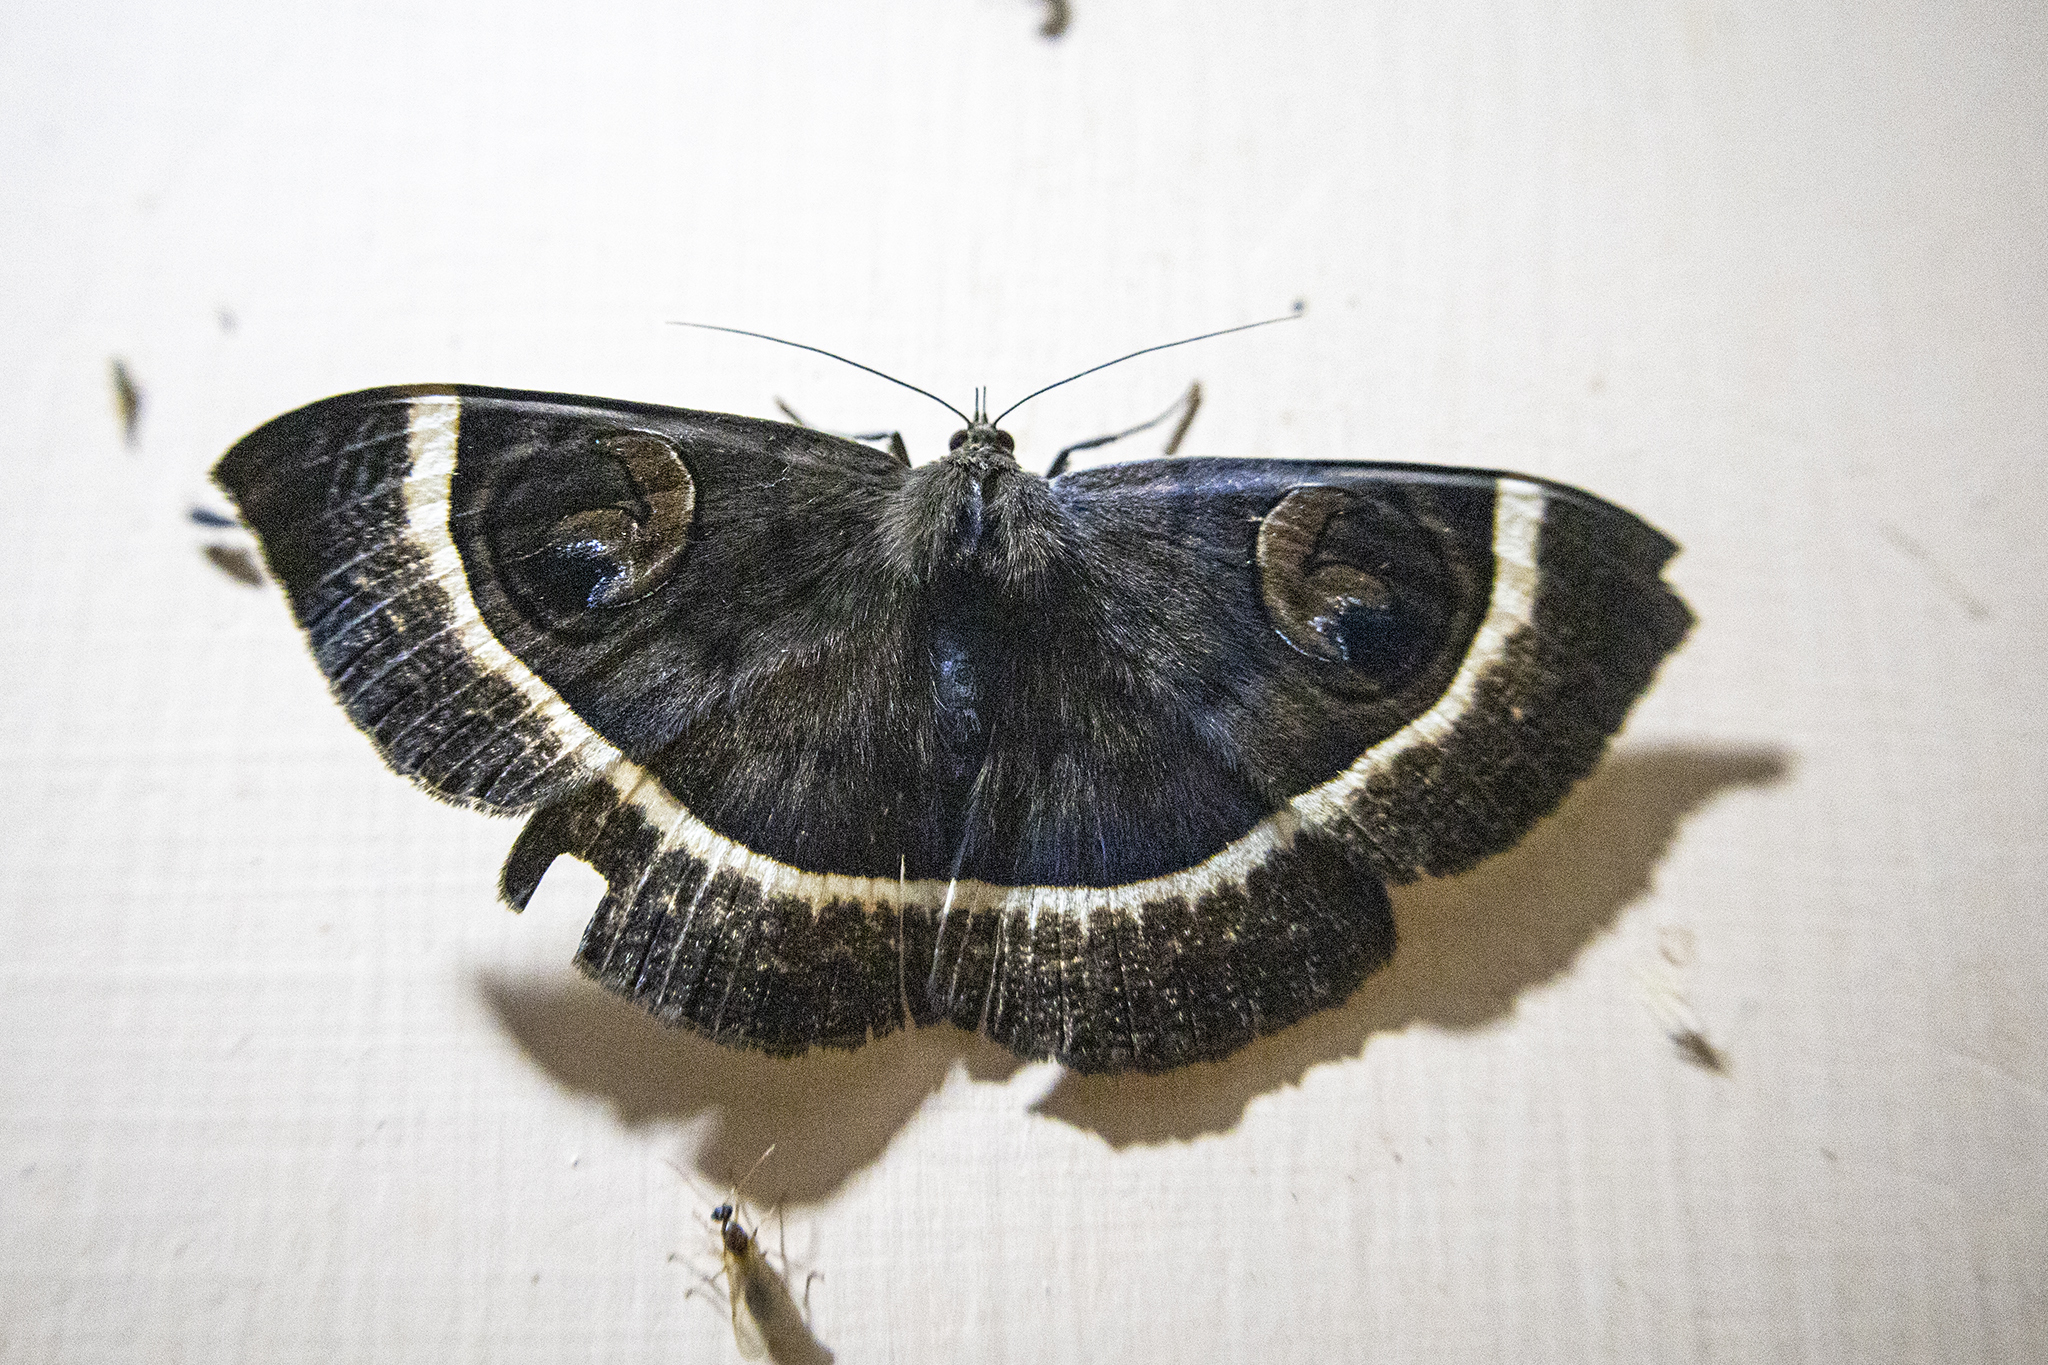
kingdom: Animalia
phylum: Arthropoda
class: Insecta
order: Lepidoptera
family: Erebidae
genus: Erebus
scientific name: Erebus gemmans
